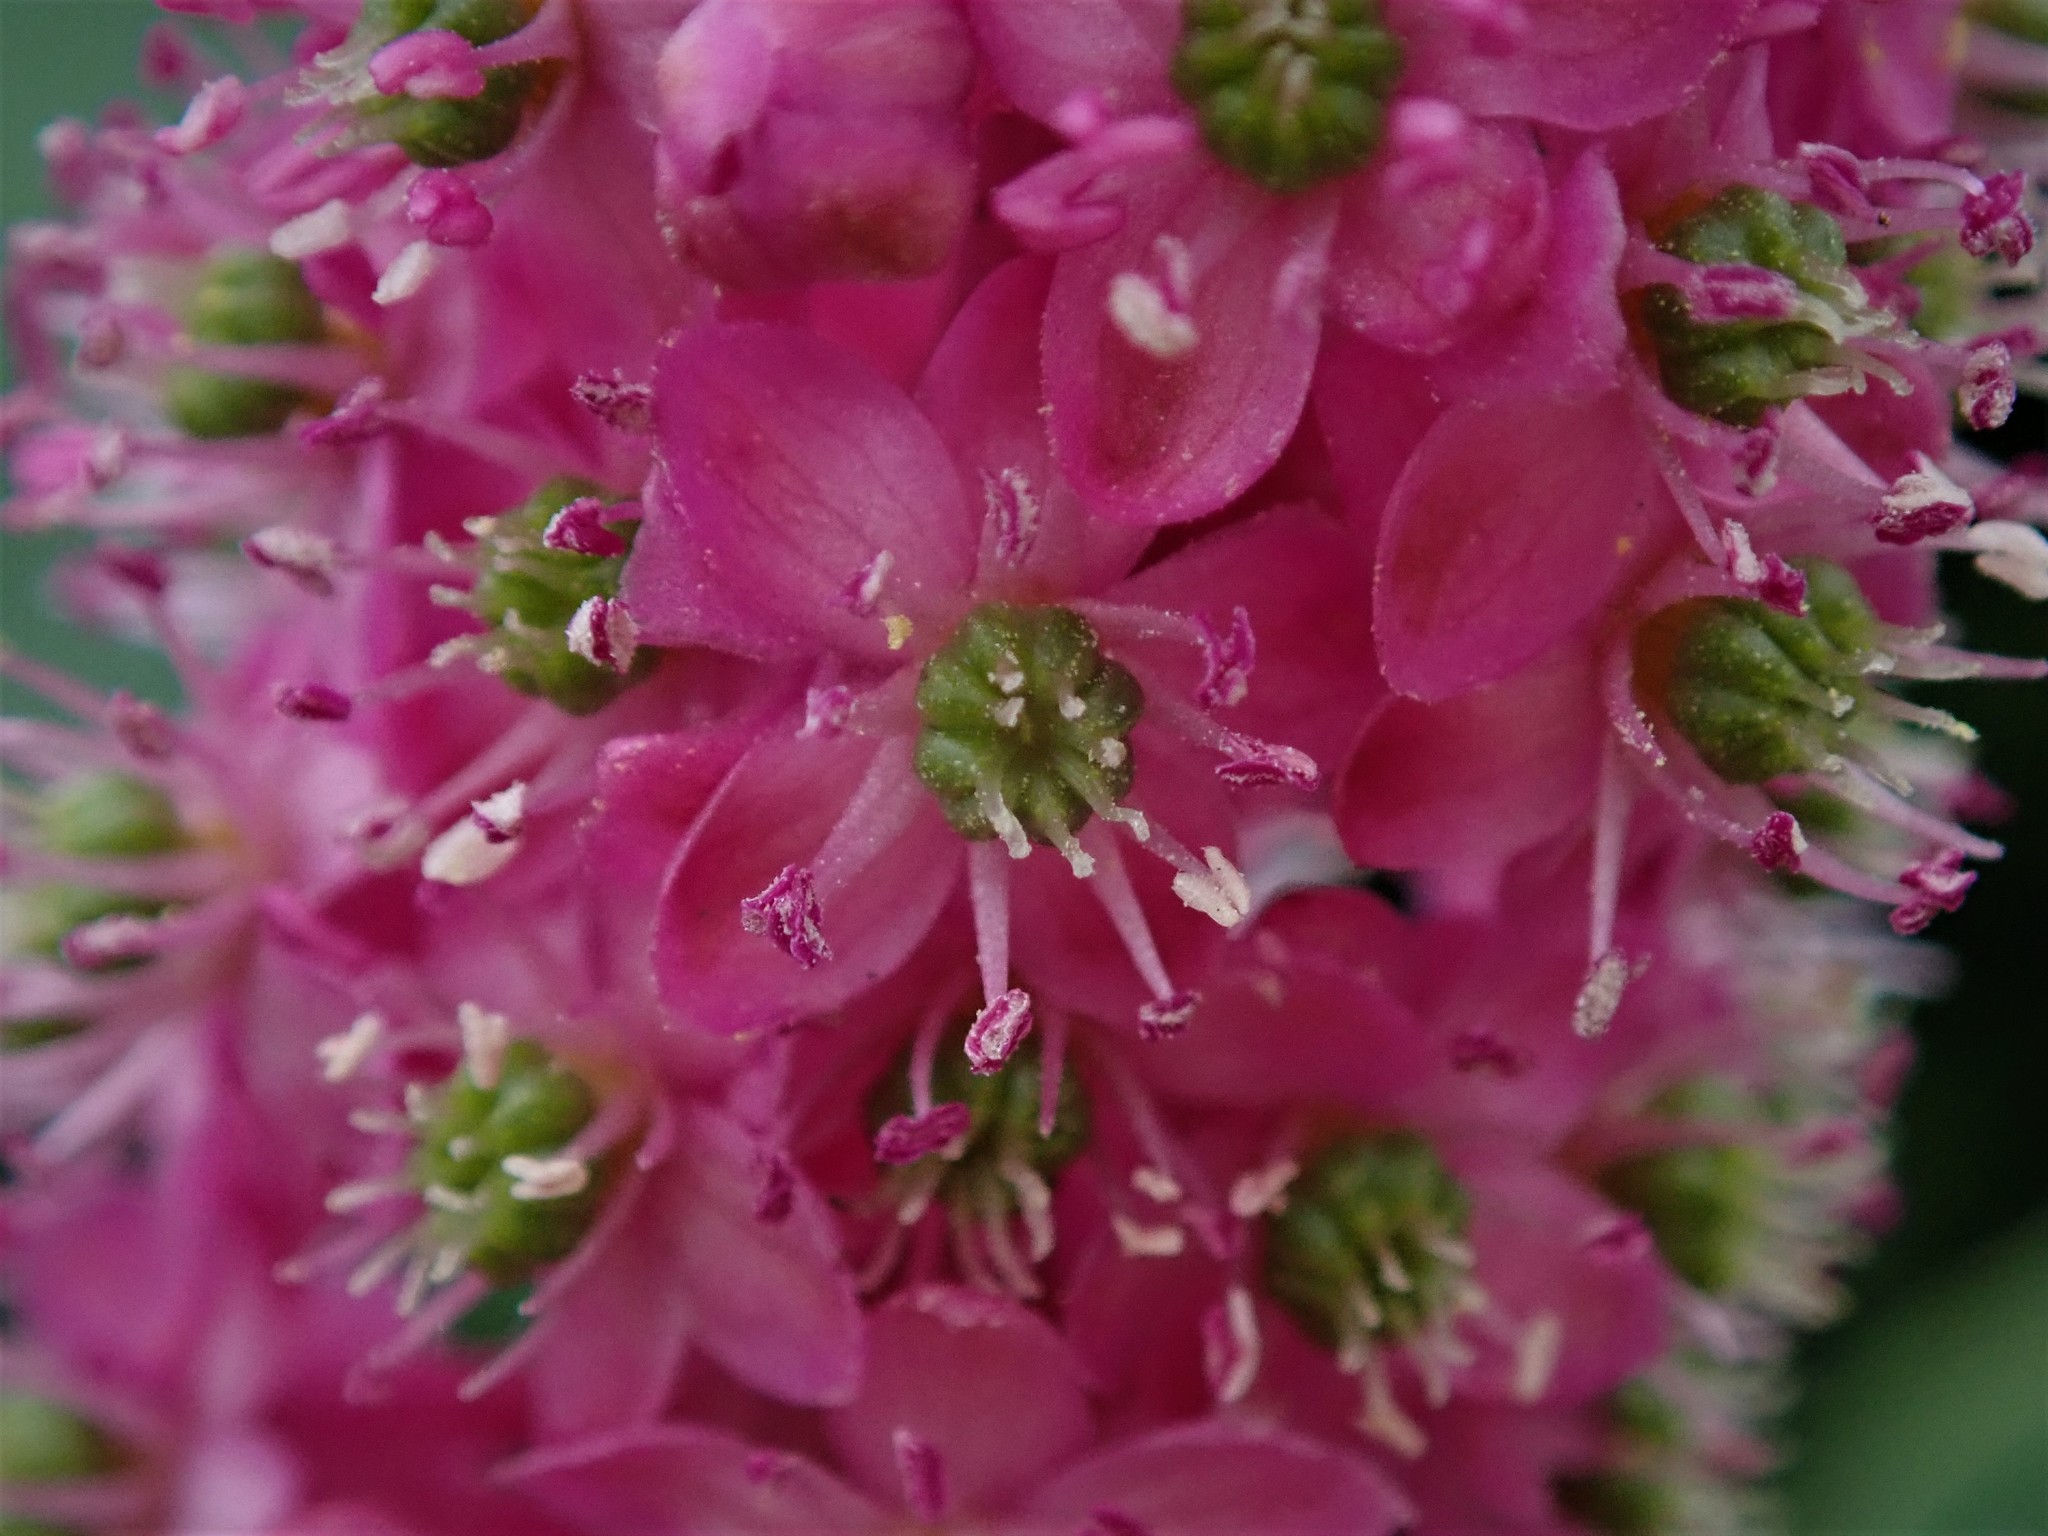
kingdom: Plantae
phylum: Tracheophyta
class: Magnoliopsida
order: Caryophyllales
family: Phytolaccaceae
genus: Phytolacca
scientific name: Phytolacca polyandra
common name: Chinese pokeweed
